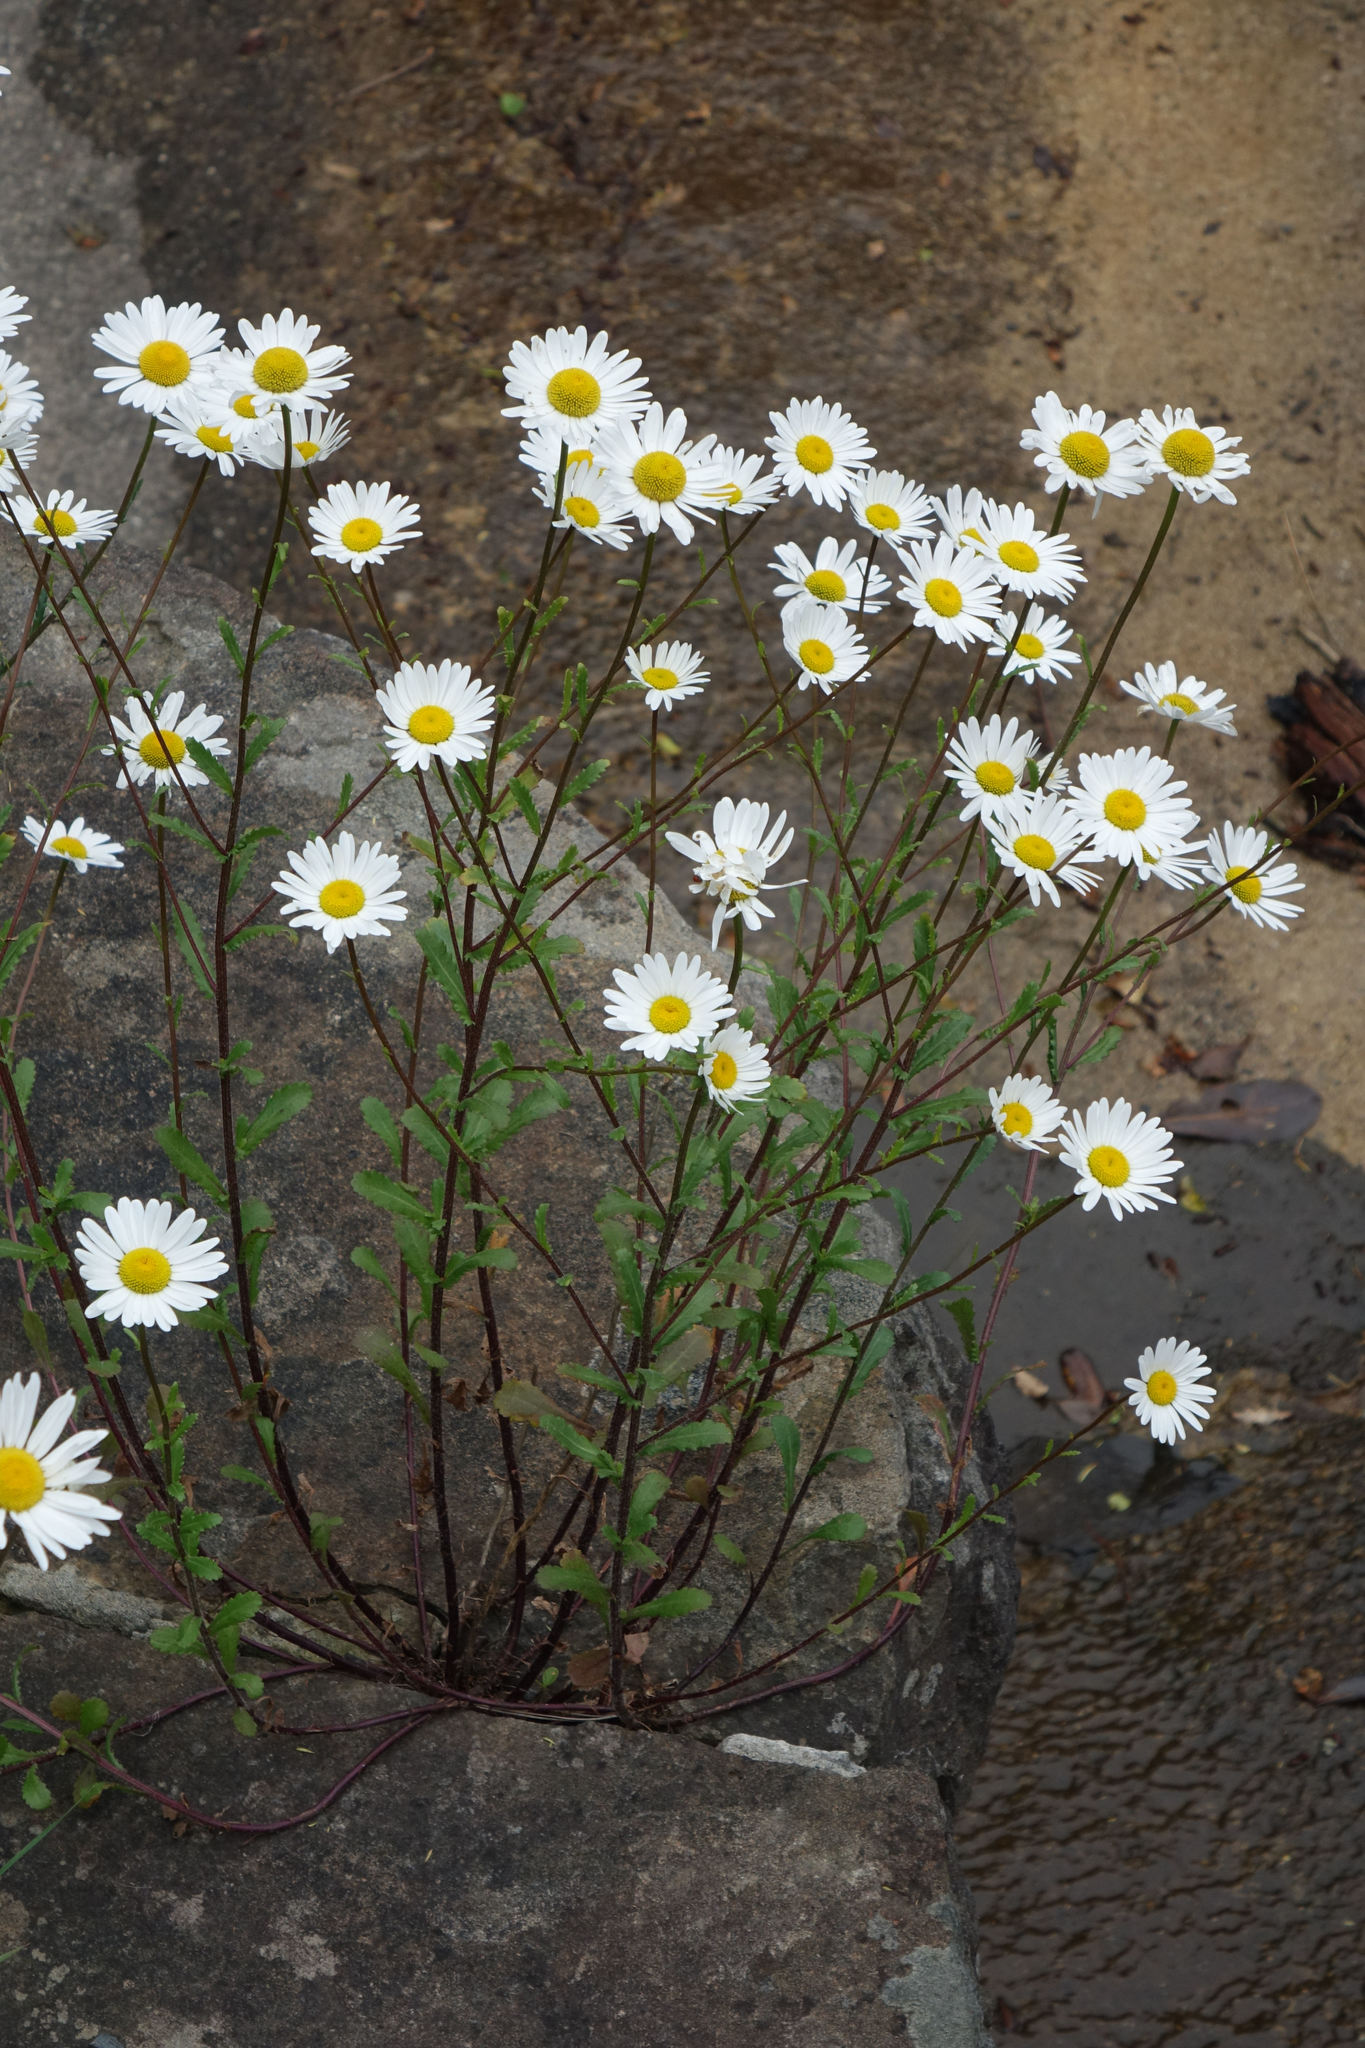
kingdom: Plantae
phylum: Tracheophyta
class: Magnoliopsida
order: Asterales
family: Asteraceae
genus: Leucanthemum
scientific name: Leucanthemum vulgare
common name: Oxeye daisy
